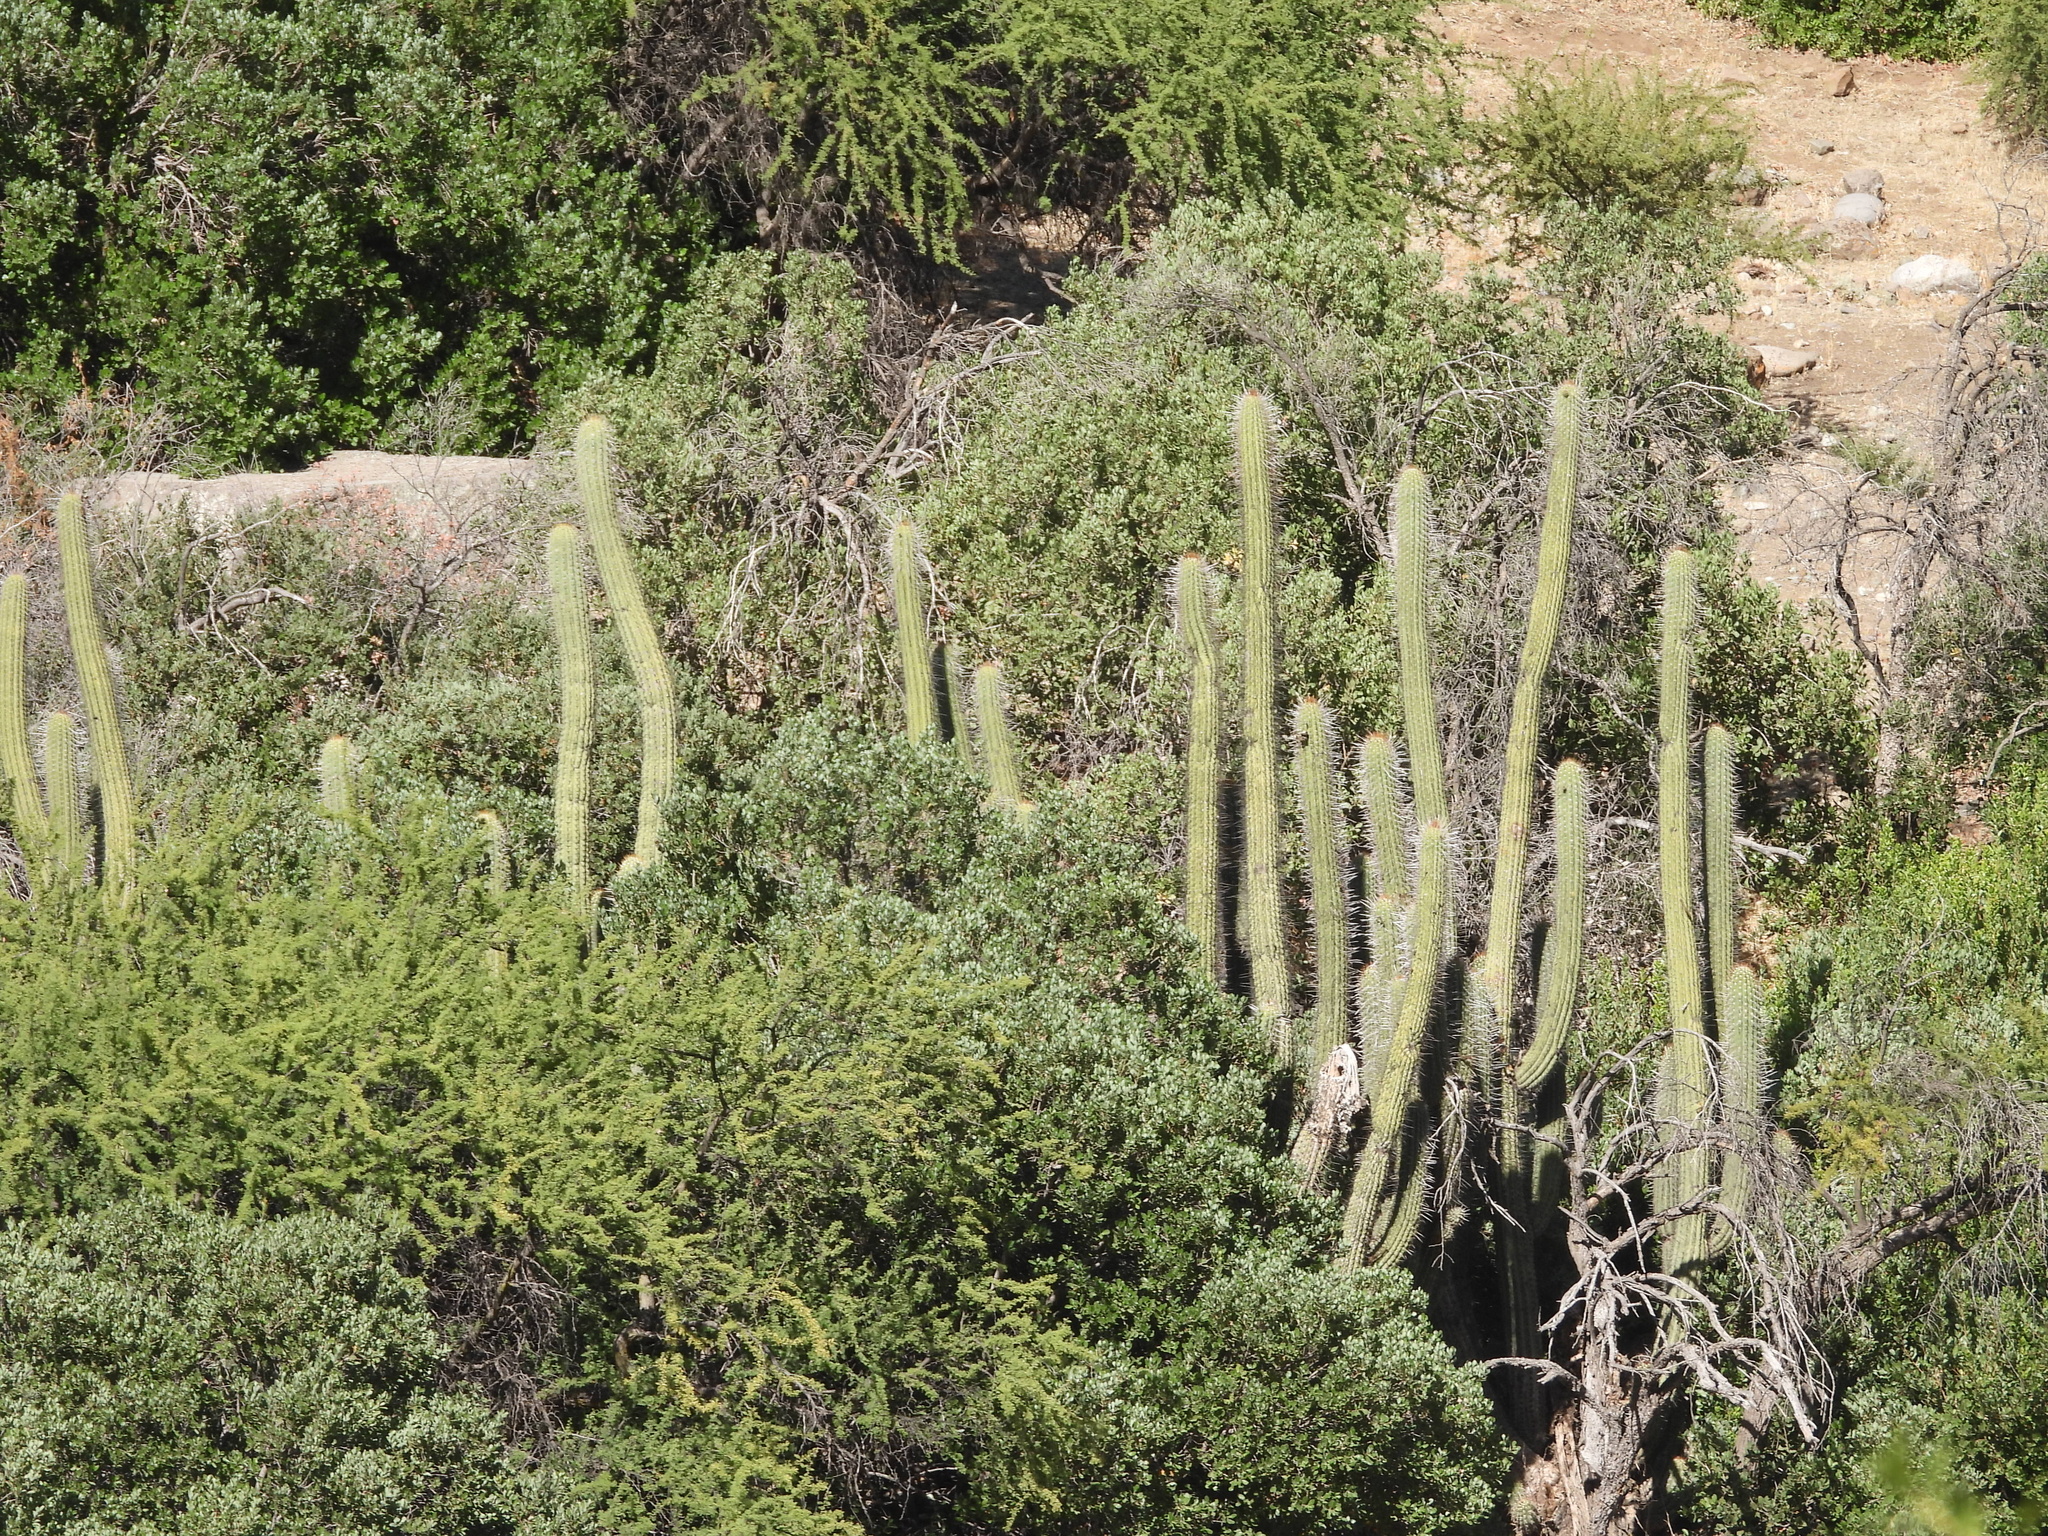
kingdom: Plantae
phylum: Tracheophyta
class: Magnoliopsida
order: Caryophyllales
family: Cactaceae
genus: Leucostele
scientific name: Leucostele chiloensis
